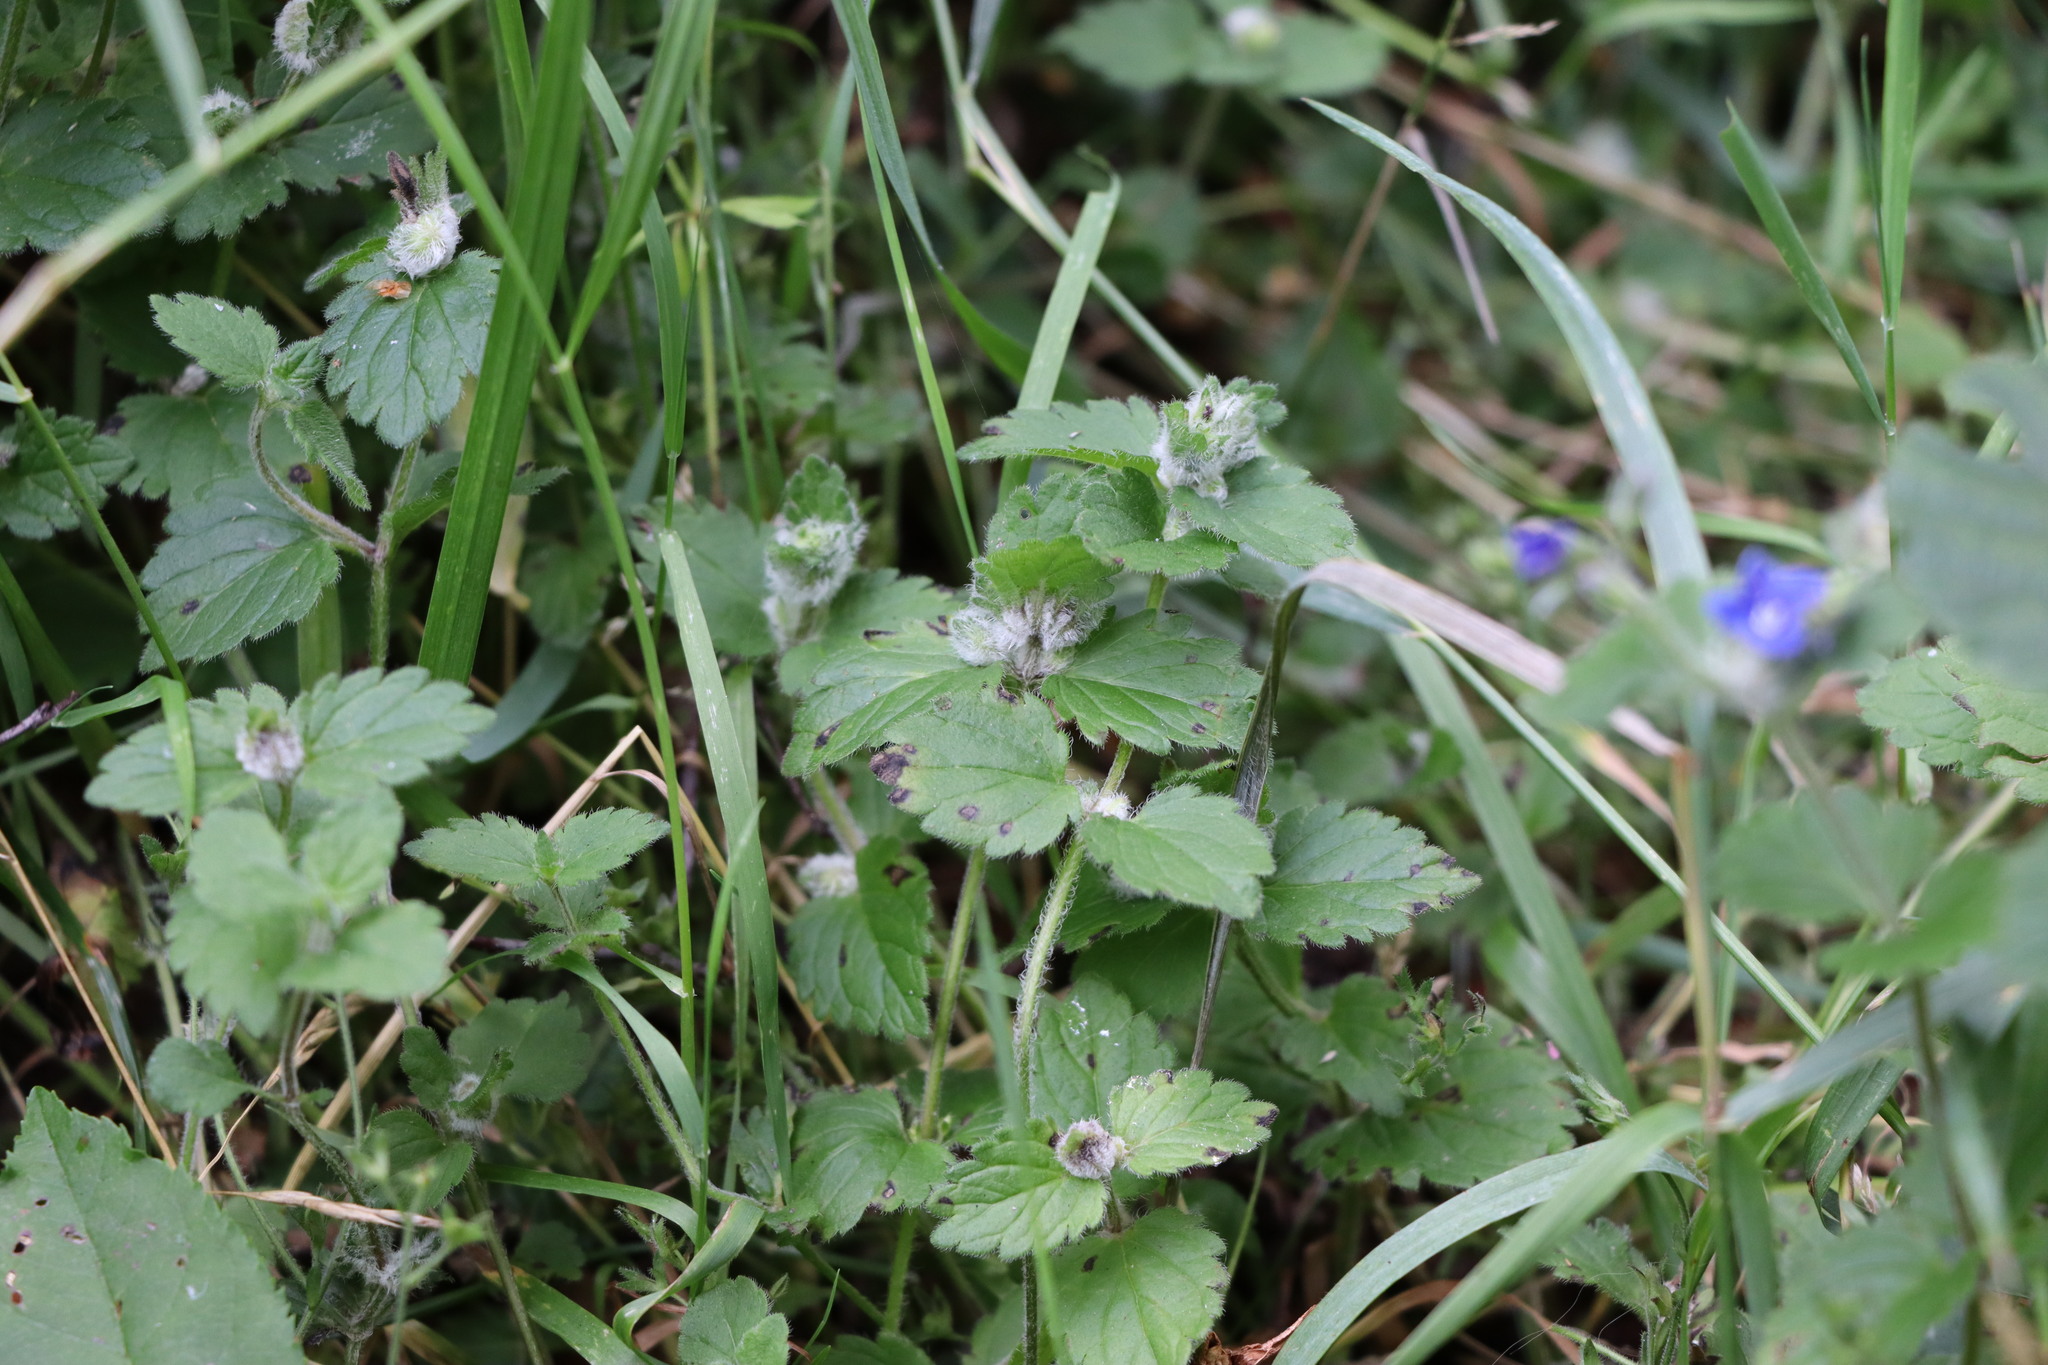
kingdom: Plantae
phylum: Tracheophyta
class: Magnoliopsida
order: Lamiales
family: Plantaginaceae
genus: Veronica
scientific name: Veronica chamaedrys
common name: Germander speedwell
